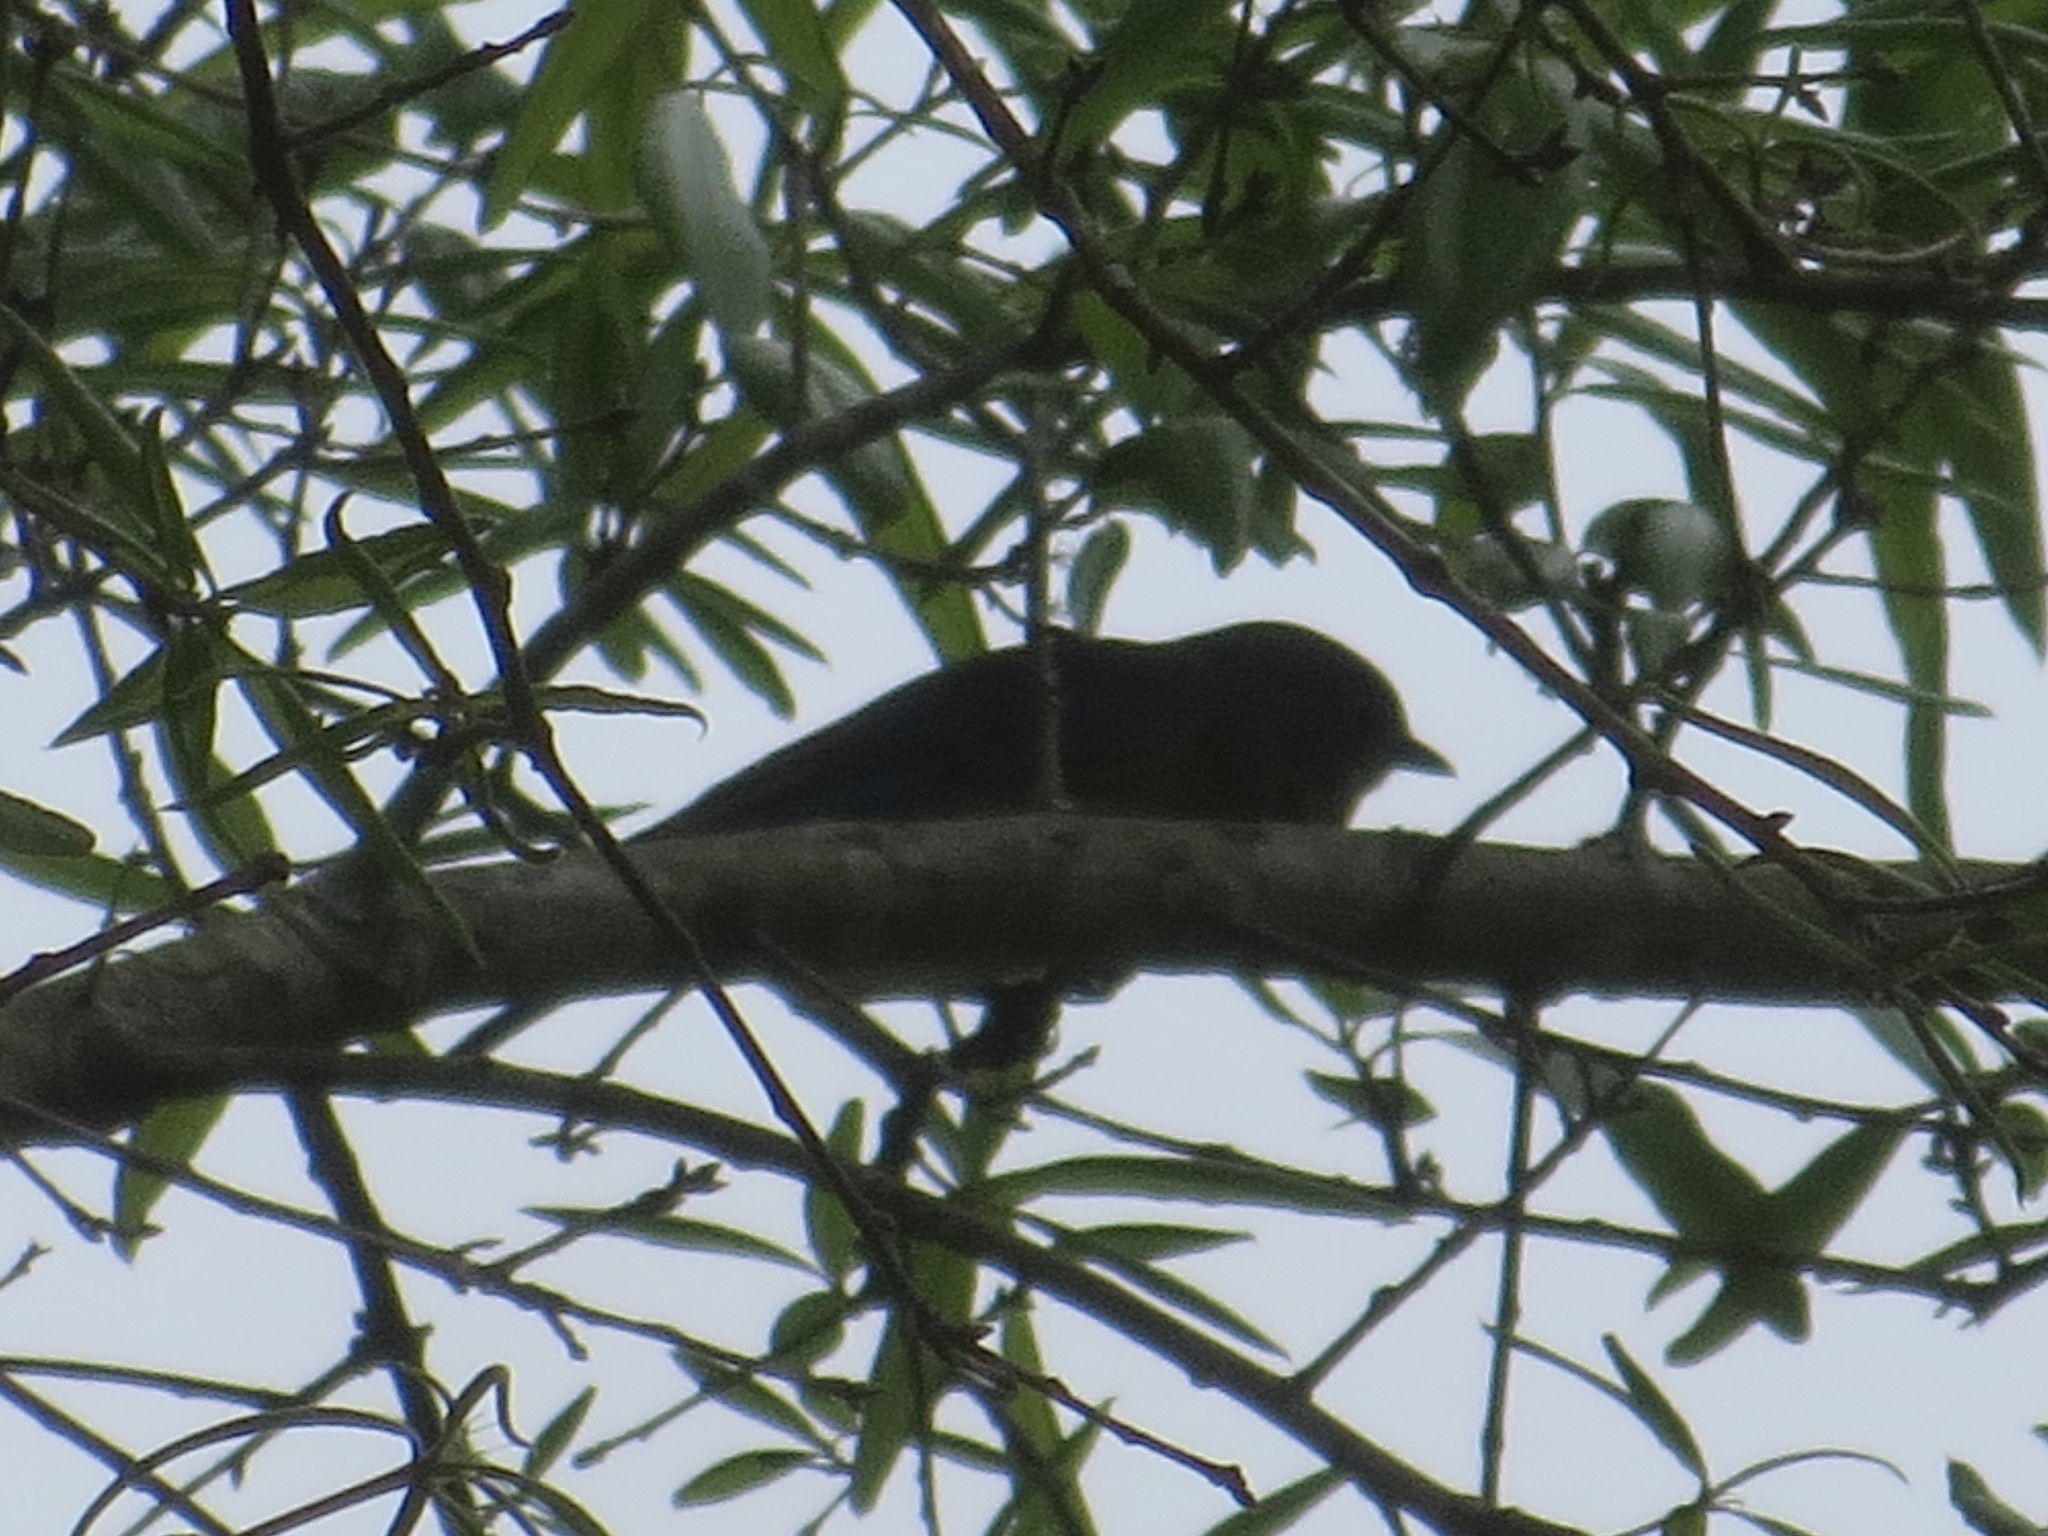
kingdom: Animalia
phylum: Chordata
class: Aves
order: Passeriformes
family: Turdidae
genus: Sialia
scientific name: Sialia sialis
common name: Eastern bluebird
